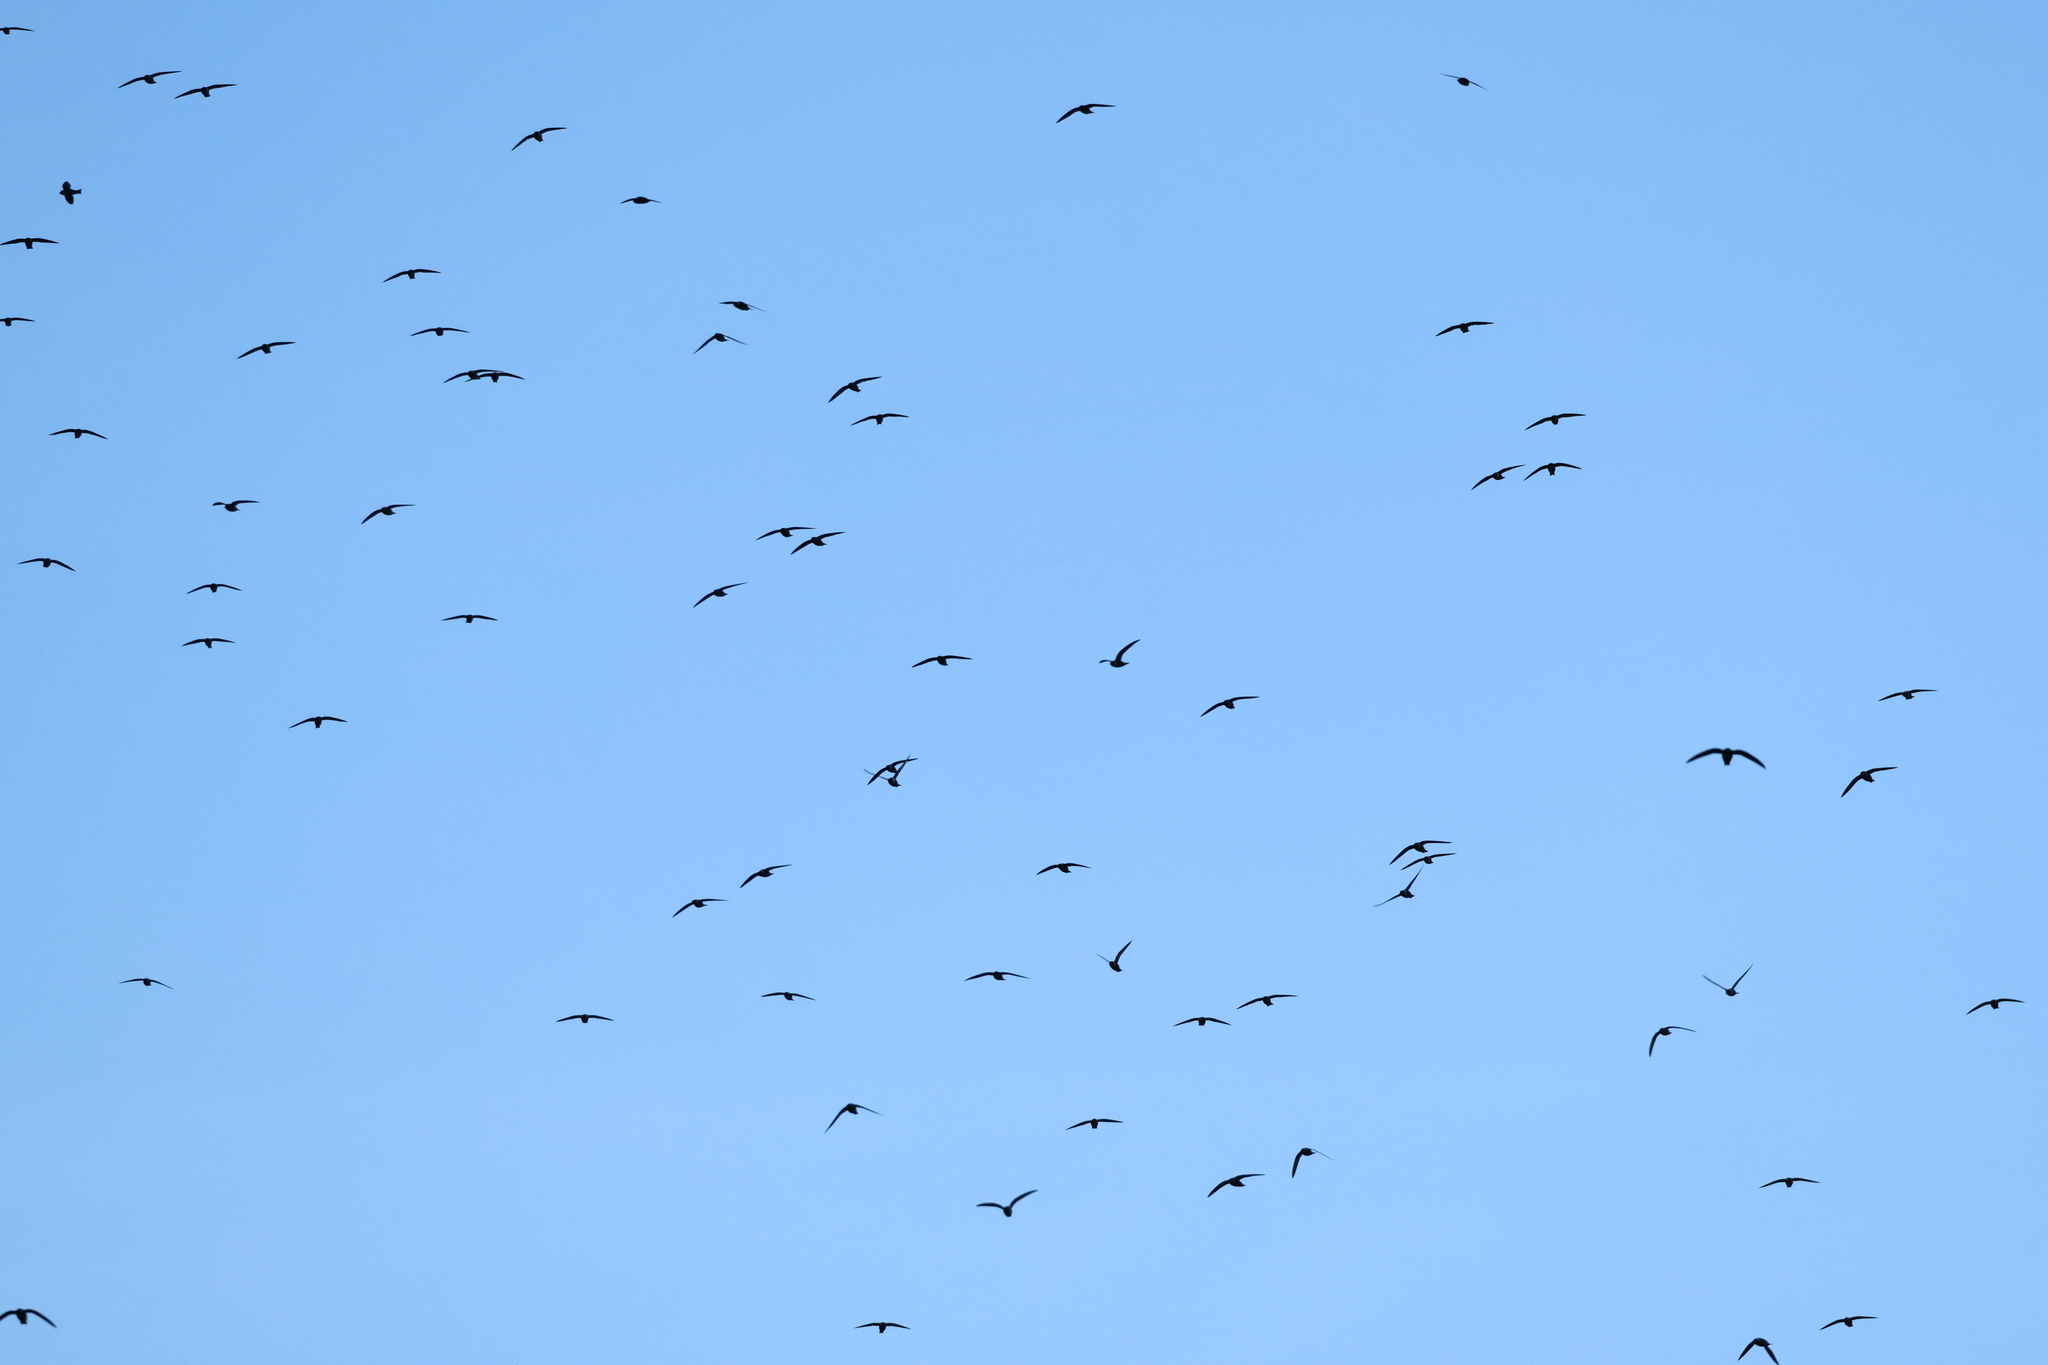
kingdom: Animalia
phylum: Chordata
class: Aves
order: Apodiformes
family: Apodidae
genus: Streptoprocne
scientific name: Streptoprocne zonaris
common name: White-collared swift
